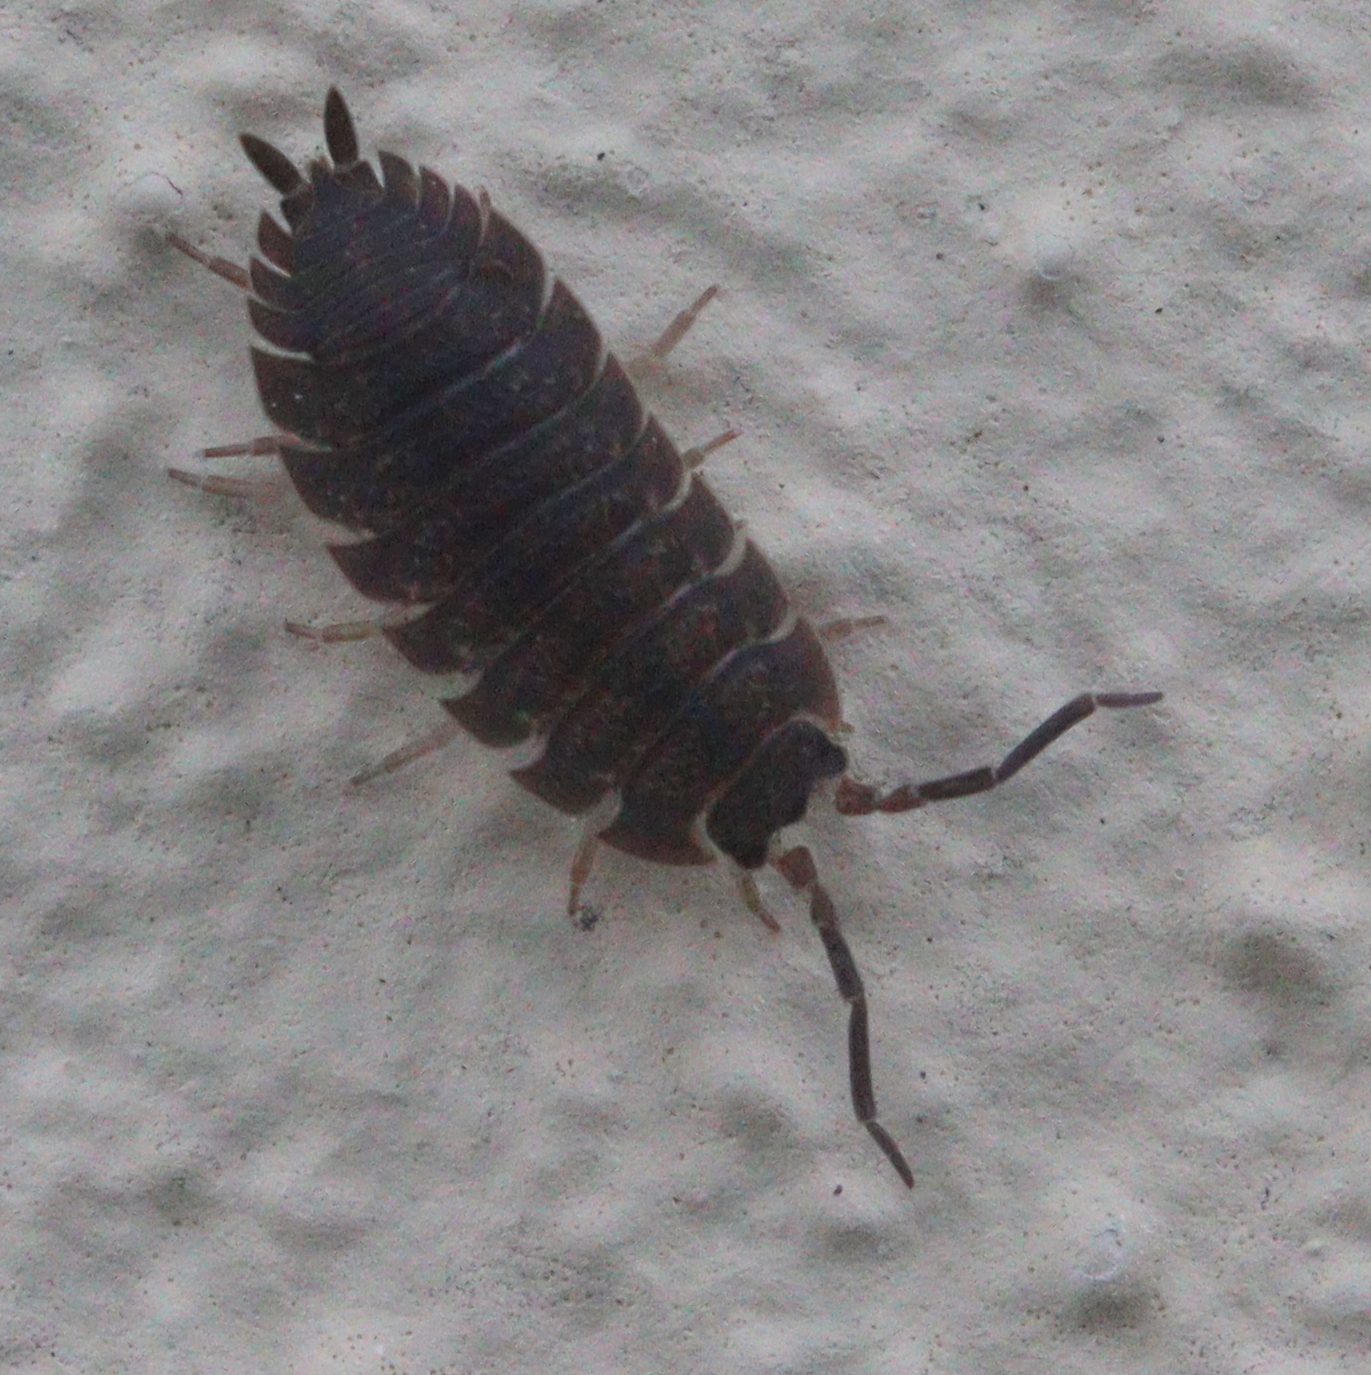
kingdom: Animalia
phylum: Arthropoda
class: Malacostraca
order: Isopoda
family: Porcellionidae
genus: Porcellio
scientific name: Porcellio scaber
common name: Common rough woodlouse
